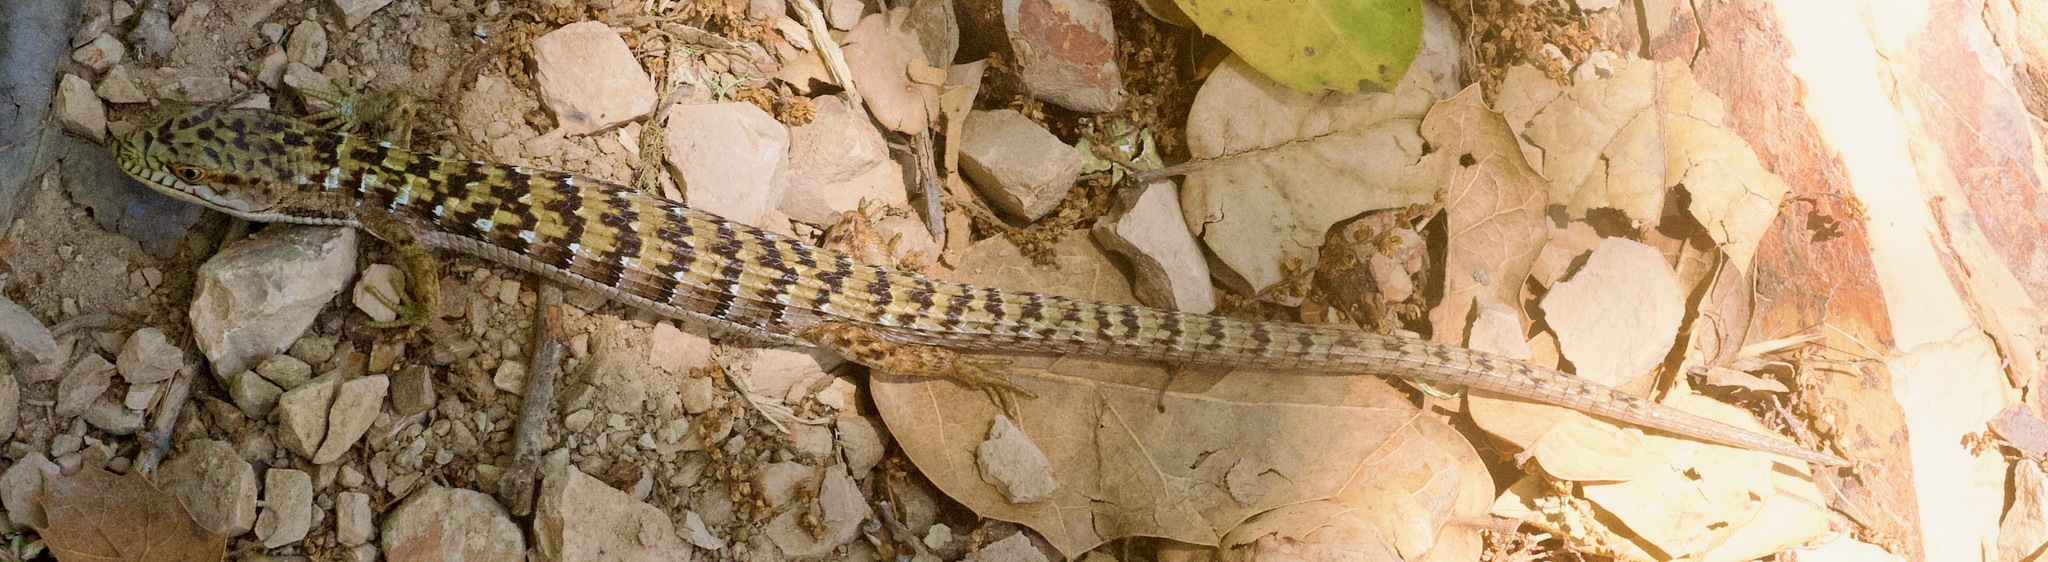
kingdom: Animalia
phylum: Chordata
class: Squamata
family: Anguidae
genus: Elgaria
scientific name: Elgaria multicarinata
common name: Southern alligator lizard
